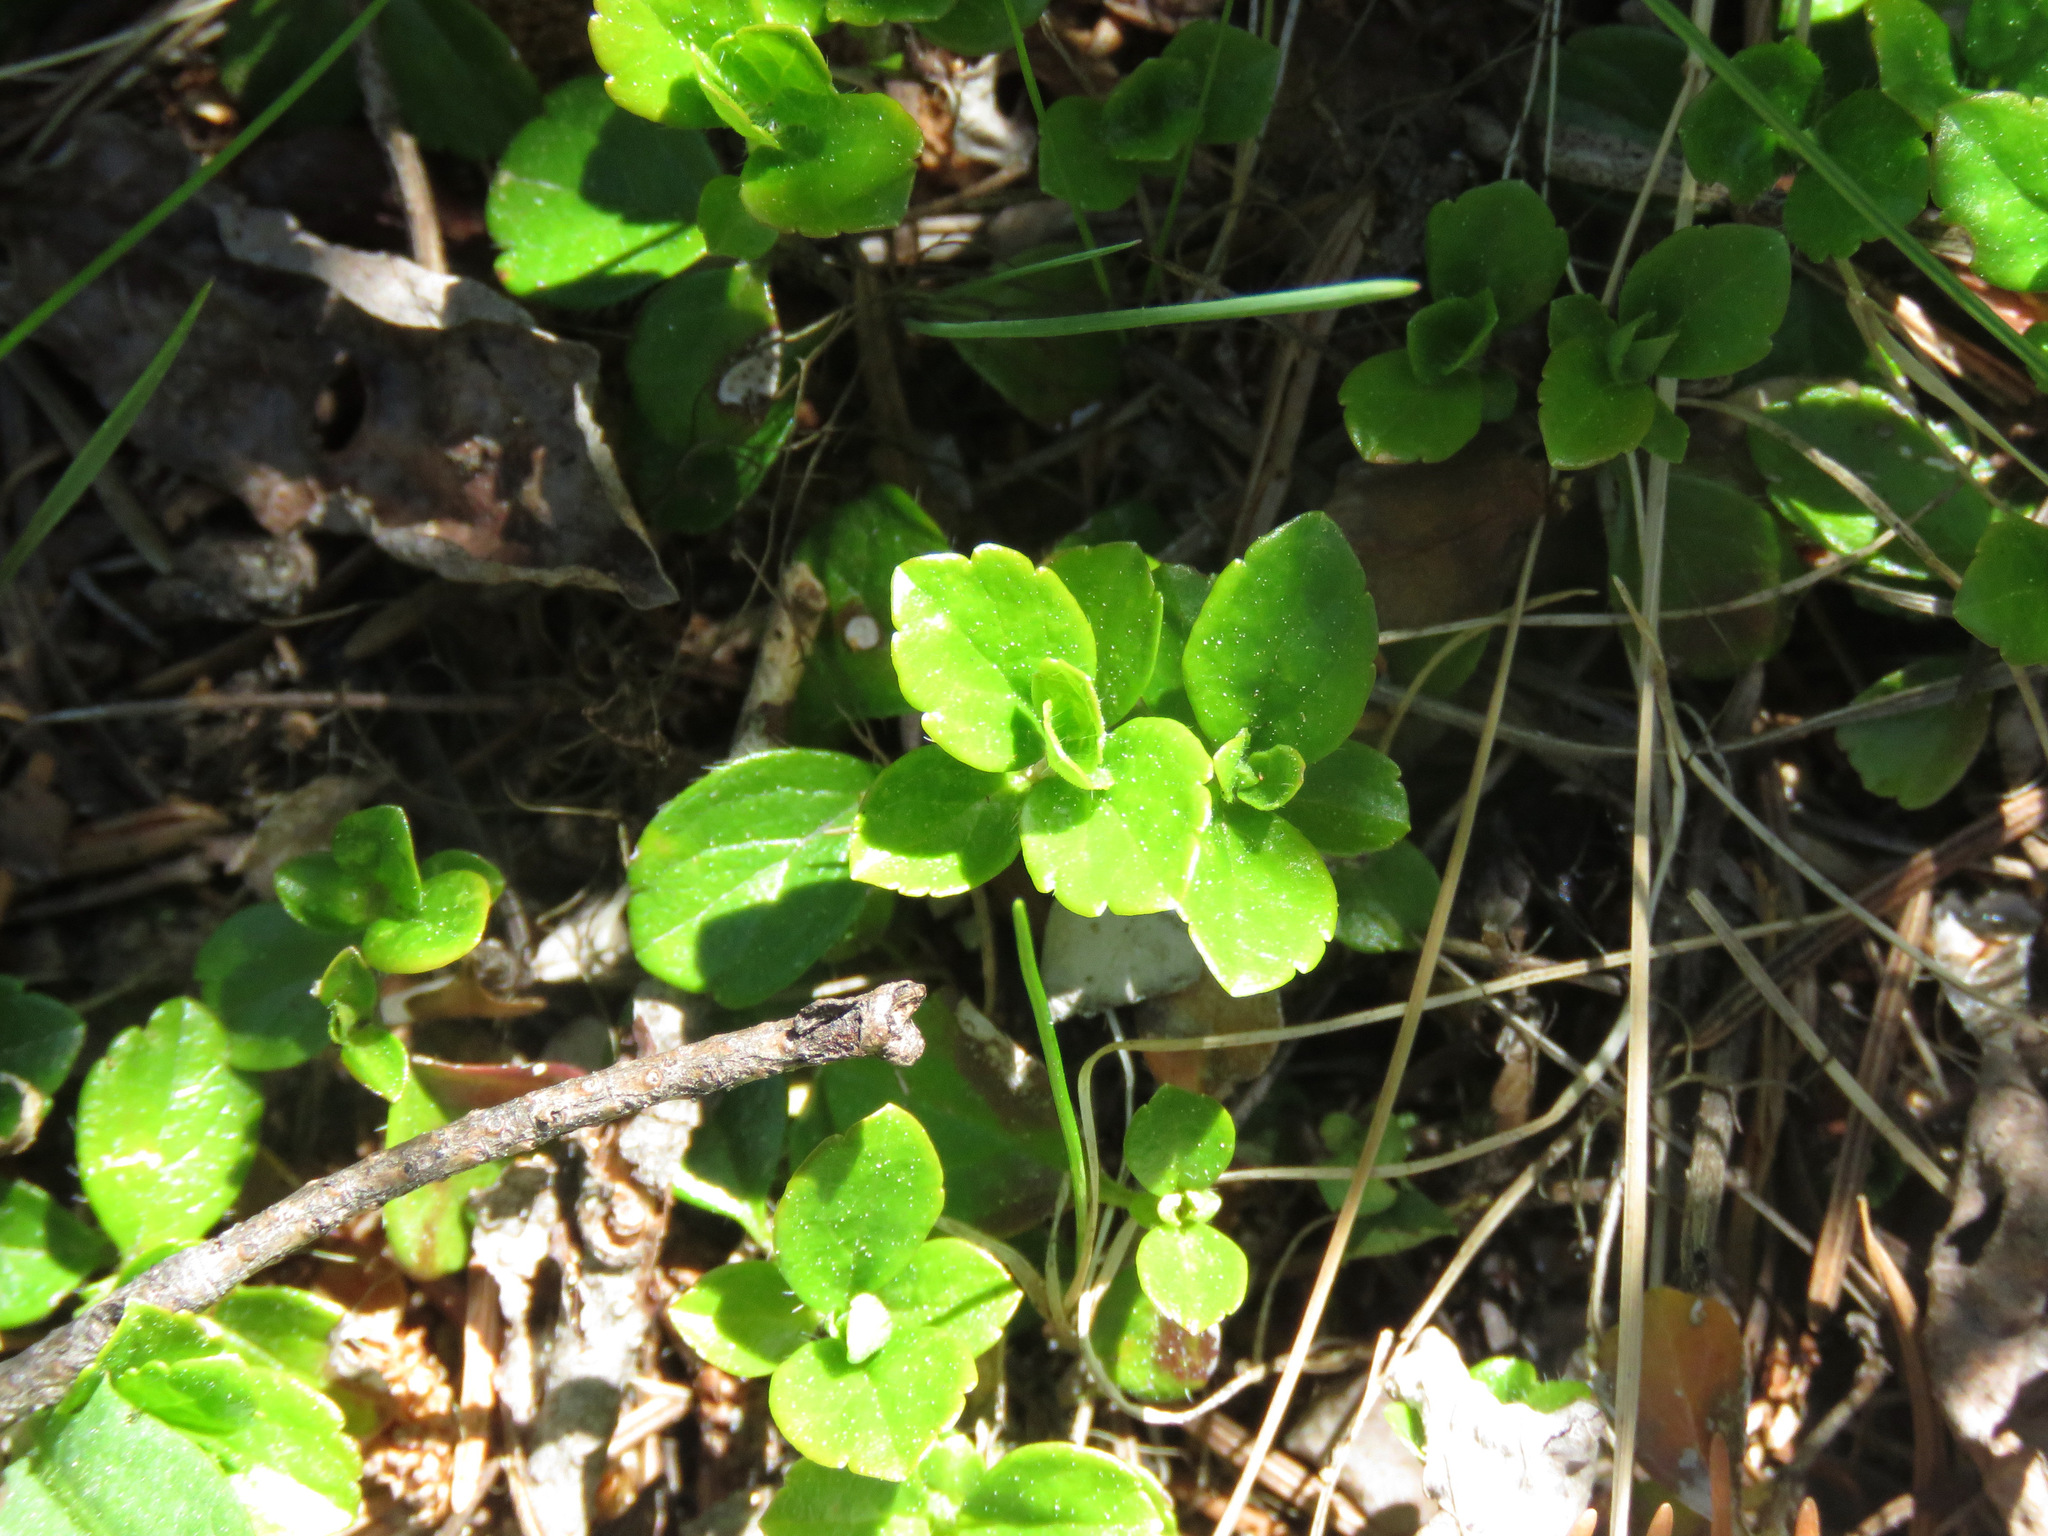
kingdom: Plantae
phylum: Tracheophyta
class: Magnoliopsida
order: Dipsacales
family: Caprifoliaceae
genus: Linnaea
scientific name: Linnaea borealis
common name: Twinflower
